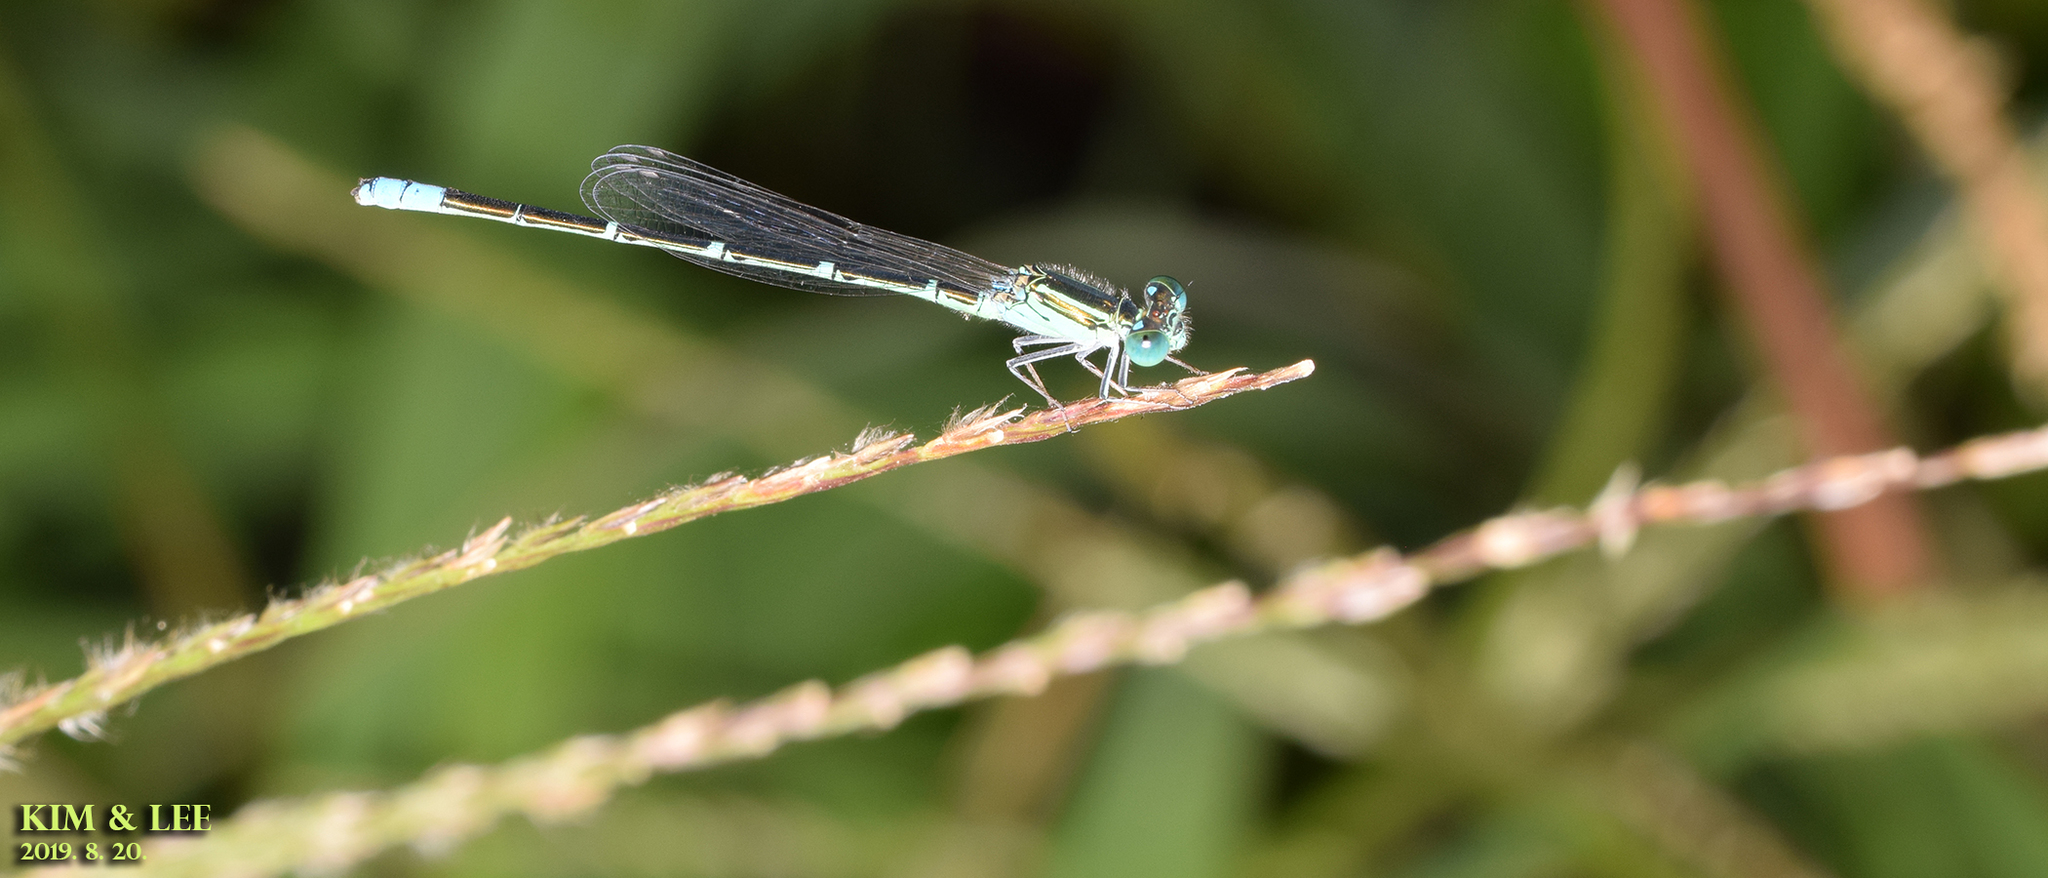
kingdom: Animalia
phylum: Arthropoda
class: Insecta
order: Odonata
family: Coenagrionidae
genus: Paracercion
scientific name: Paracercion v-nigrum
